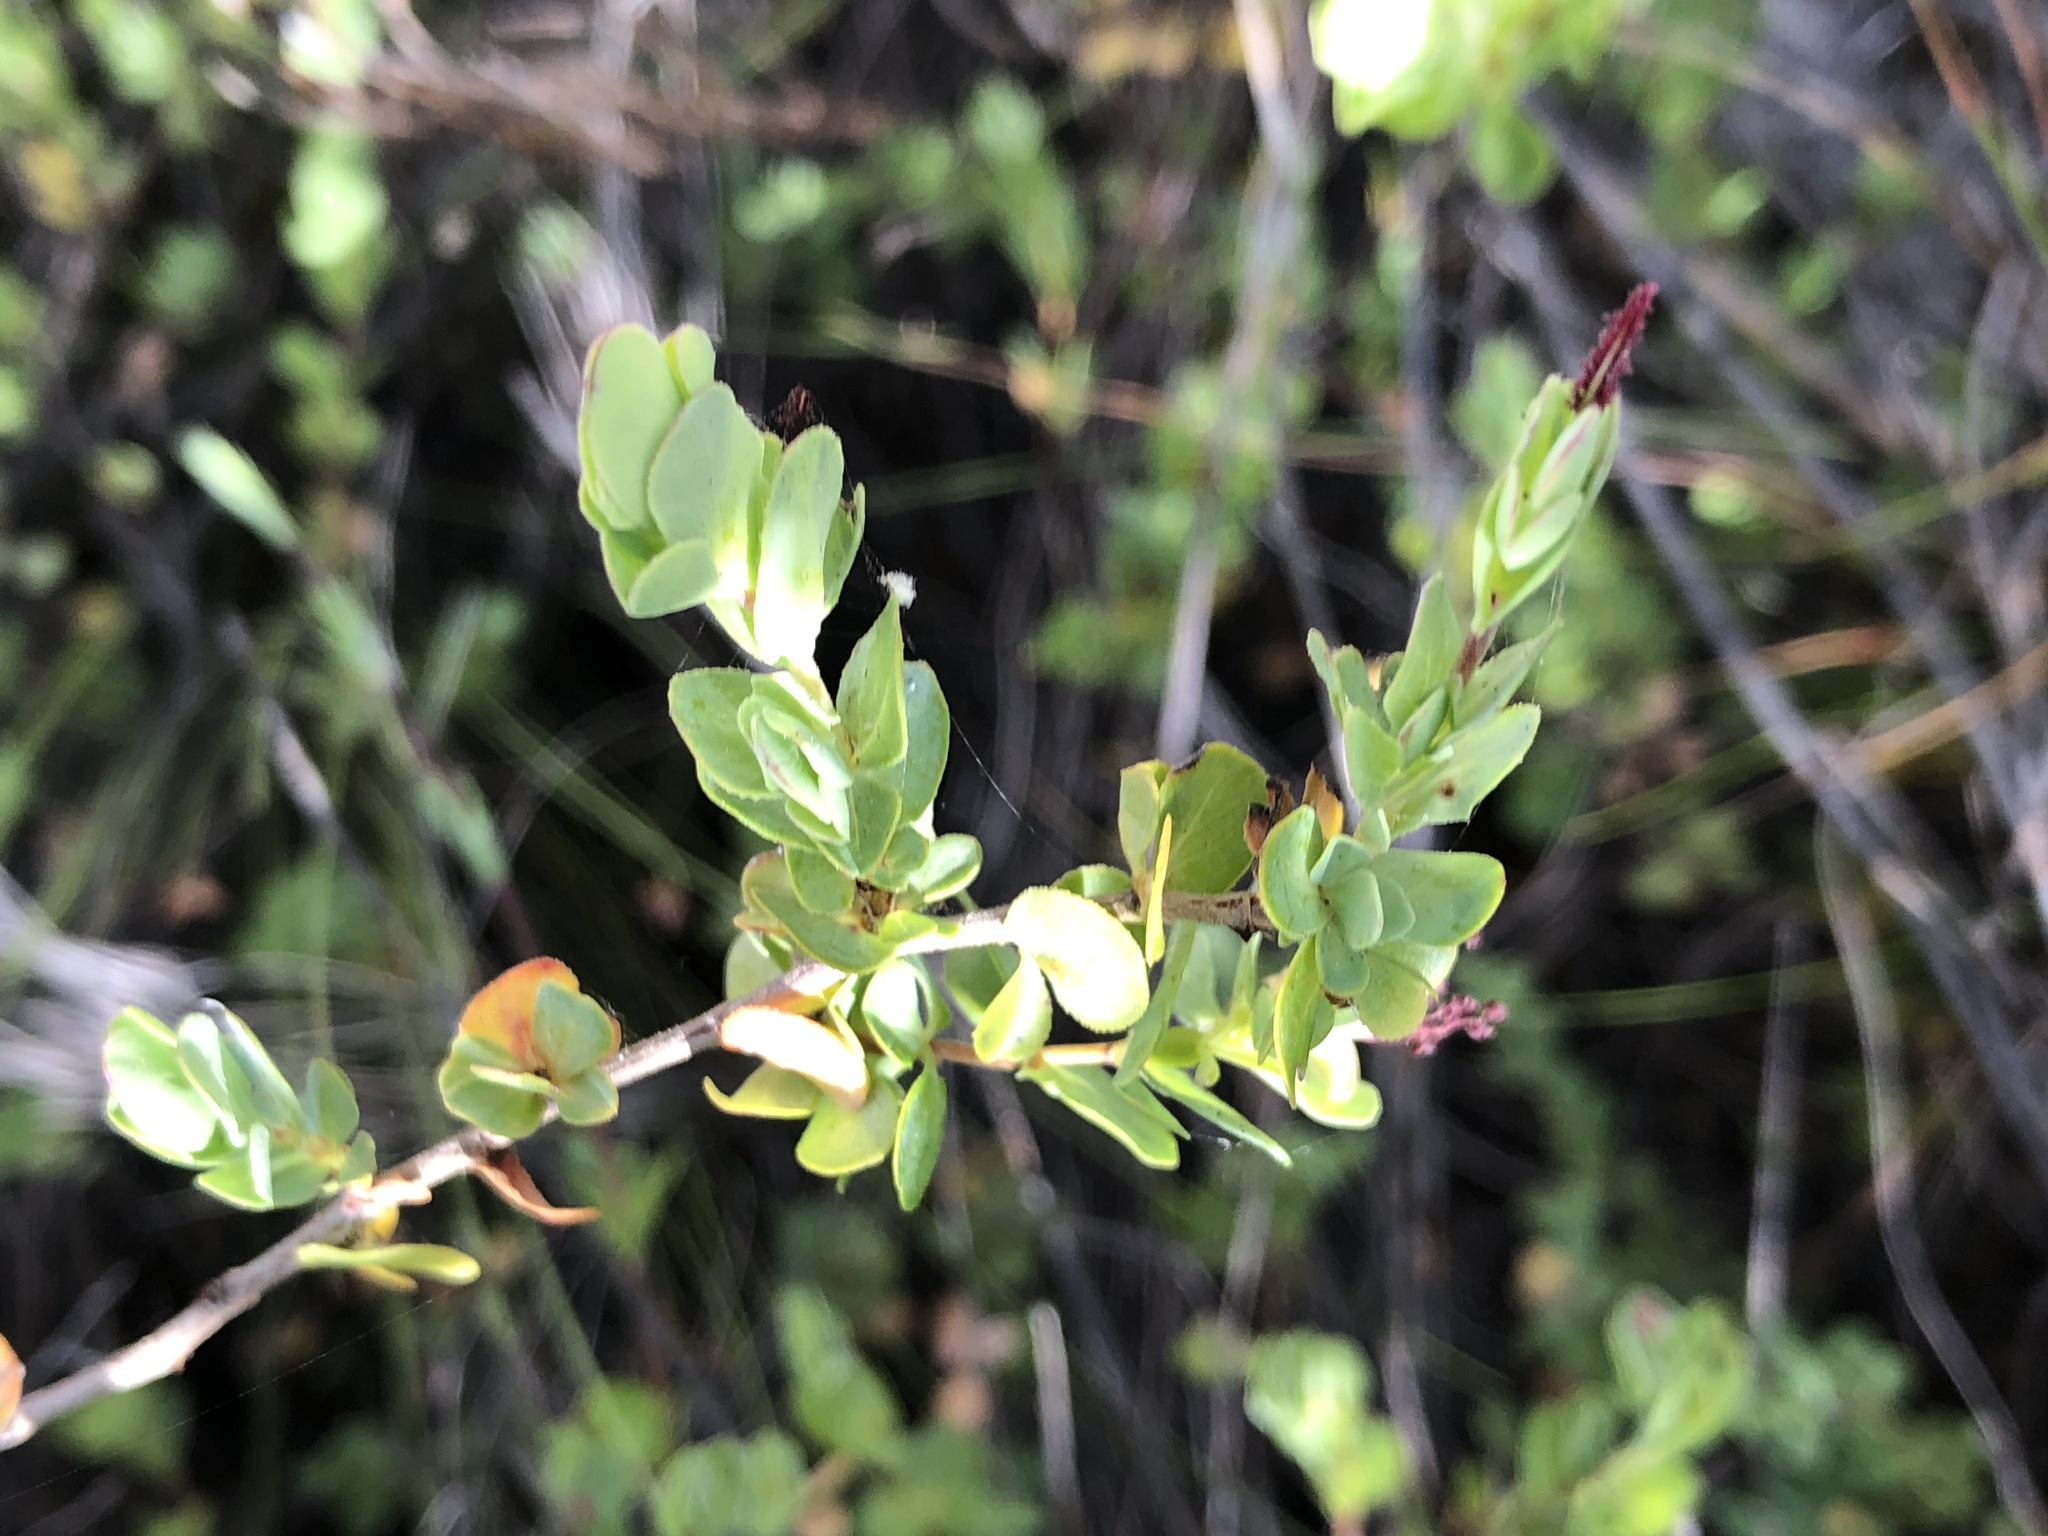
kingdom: Plantae
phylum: Tracheophyta
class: Magnoliopsida
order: Rosales
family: Rosaceae
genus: Cliffortia
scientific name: Cliffortia obcordata
